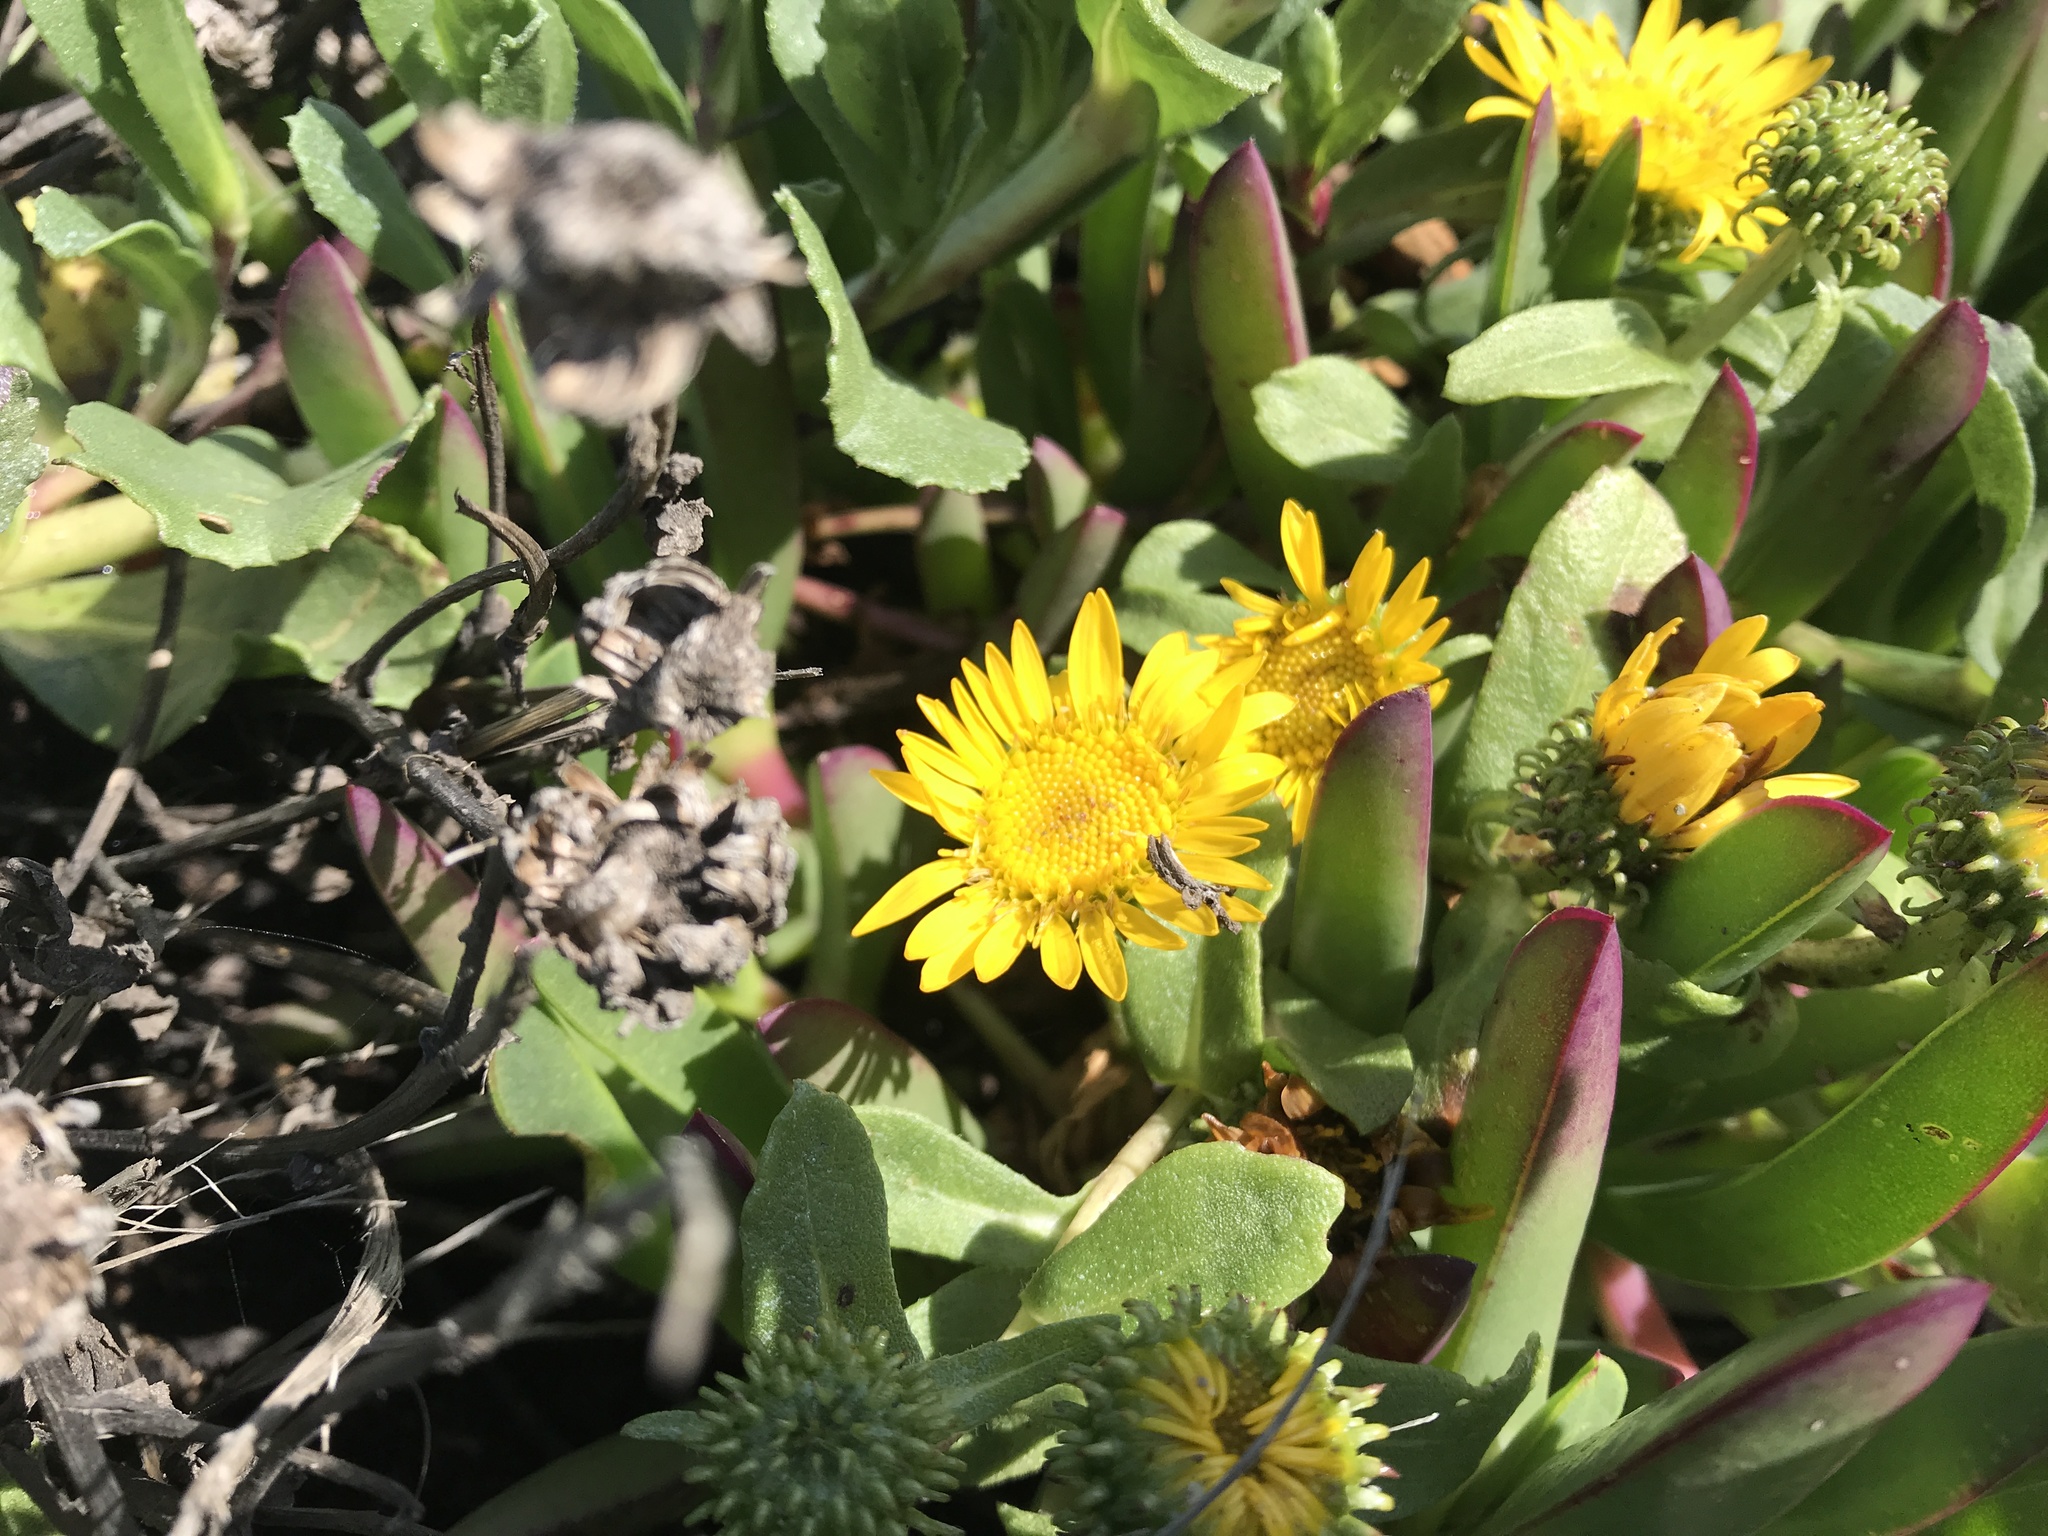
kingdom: Plantae
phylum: Tracheophyta
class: Magnoliopsida
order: Asterales
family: Asteraceae
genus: Grindelia
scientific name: Grindelia hirsutula
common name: Hairy gumweed
